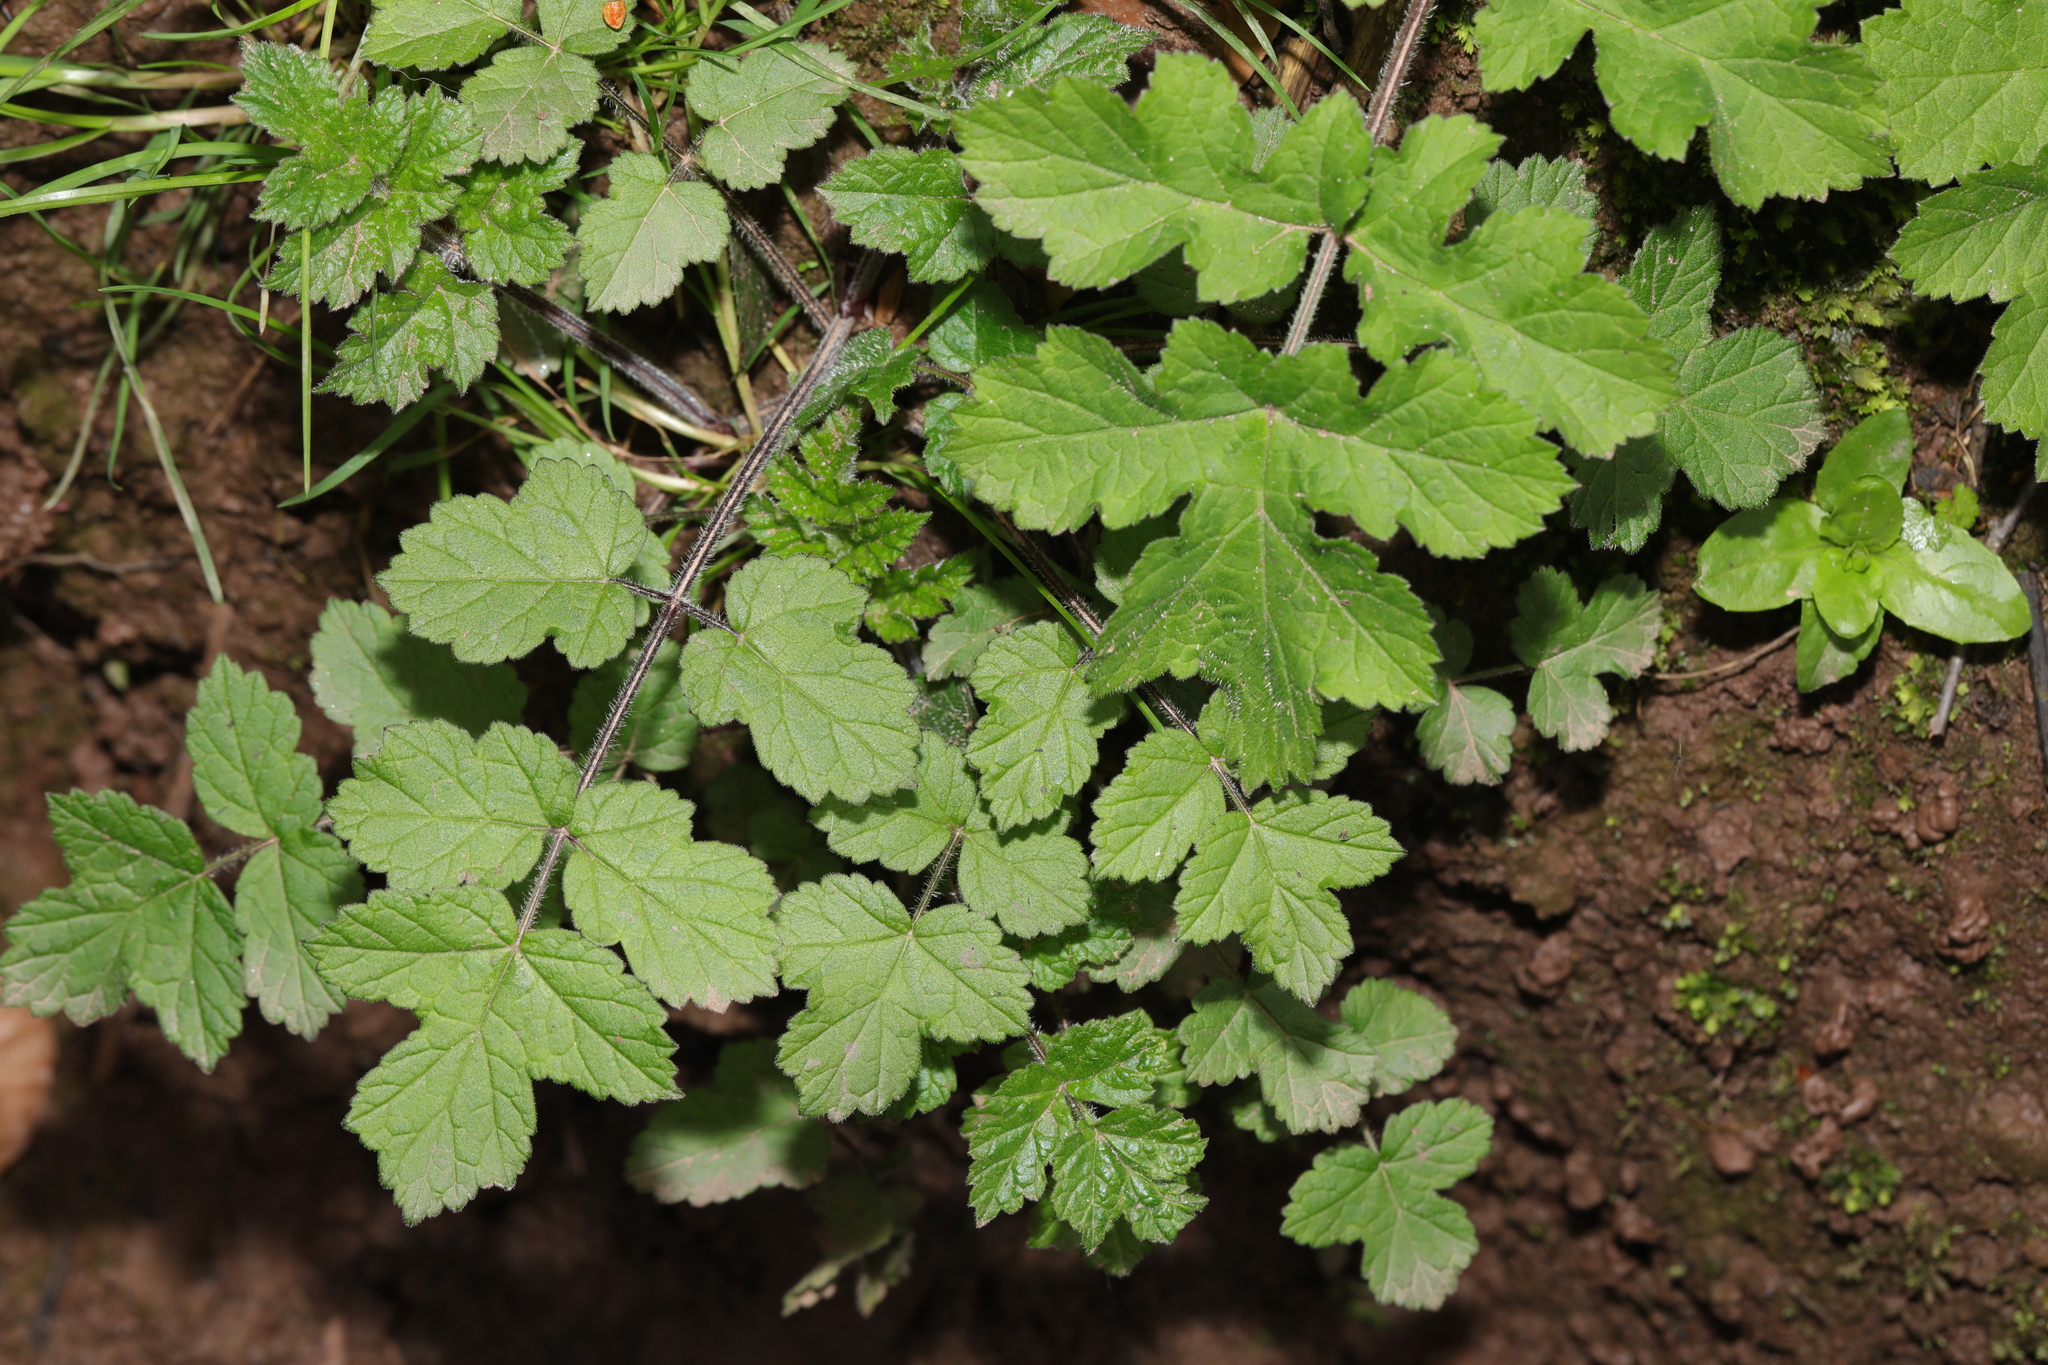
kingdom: Plantae
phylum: Tracheophyta
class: Magnoliopsida
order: Apiales
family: Apiaceae
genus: Heracleum
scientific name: Heracleum sphondylium
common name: Hogweed
